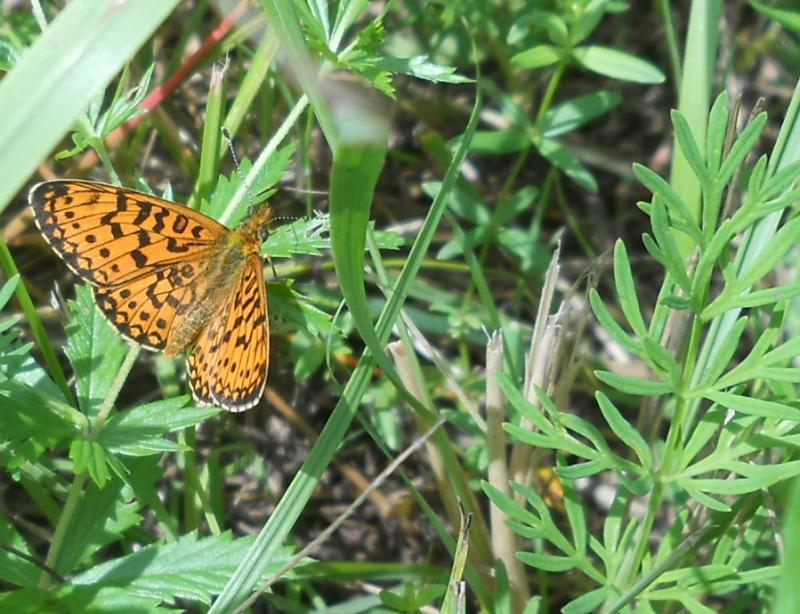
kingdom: Animalia
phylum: Arthropoda
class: Insecta
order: Lepidoptera
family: Nymphalidae
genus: Boloria
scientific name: Boloria selene
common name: Small pearl-bordered fritillary
